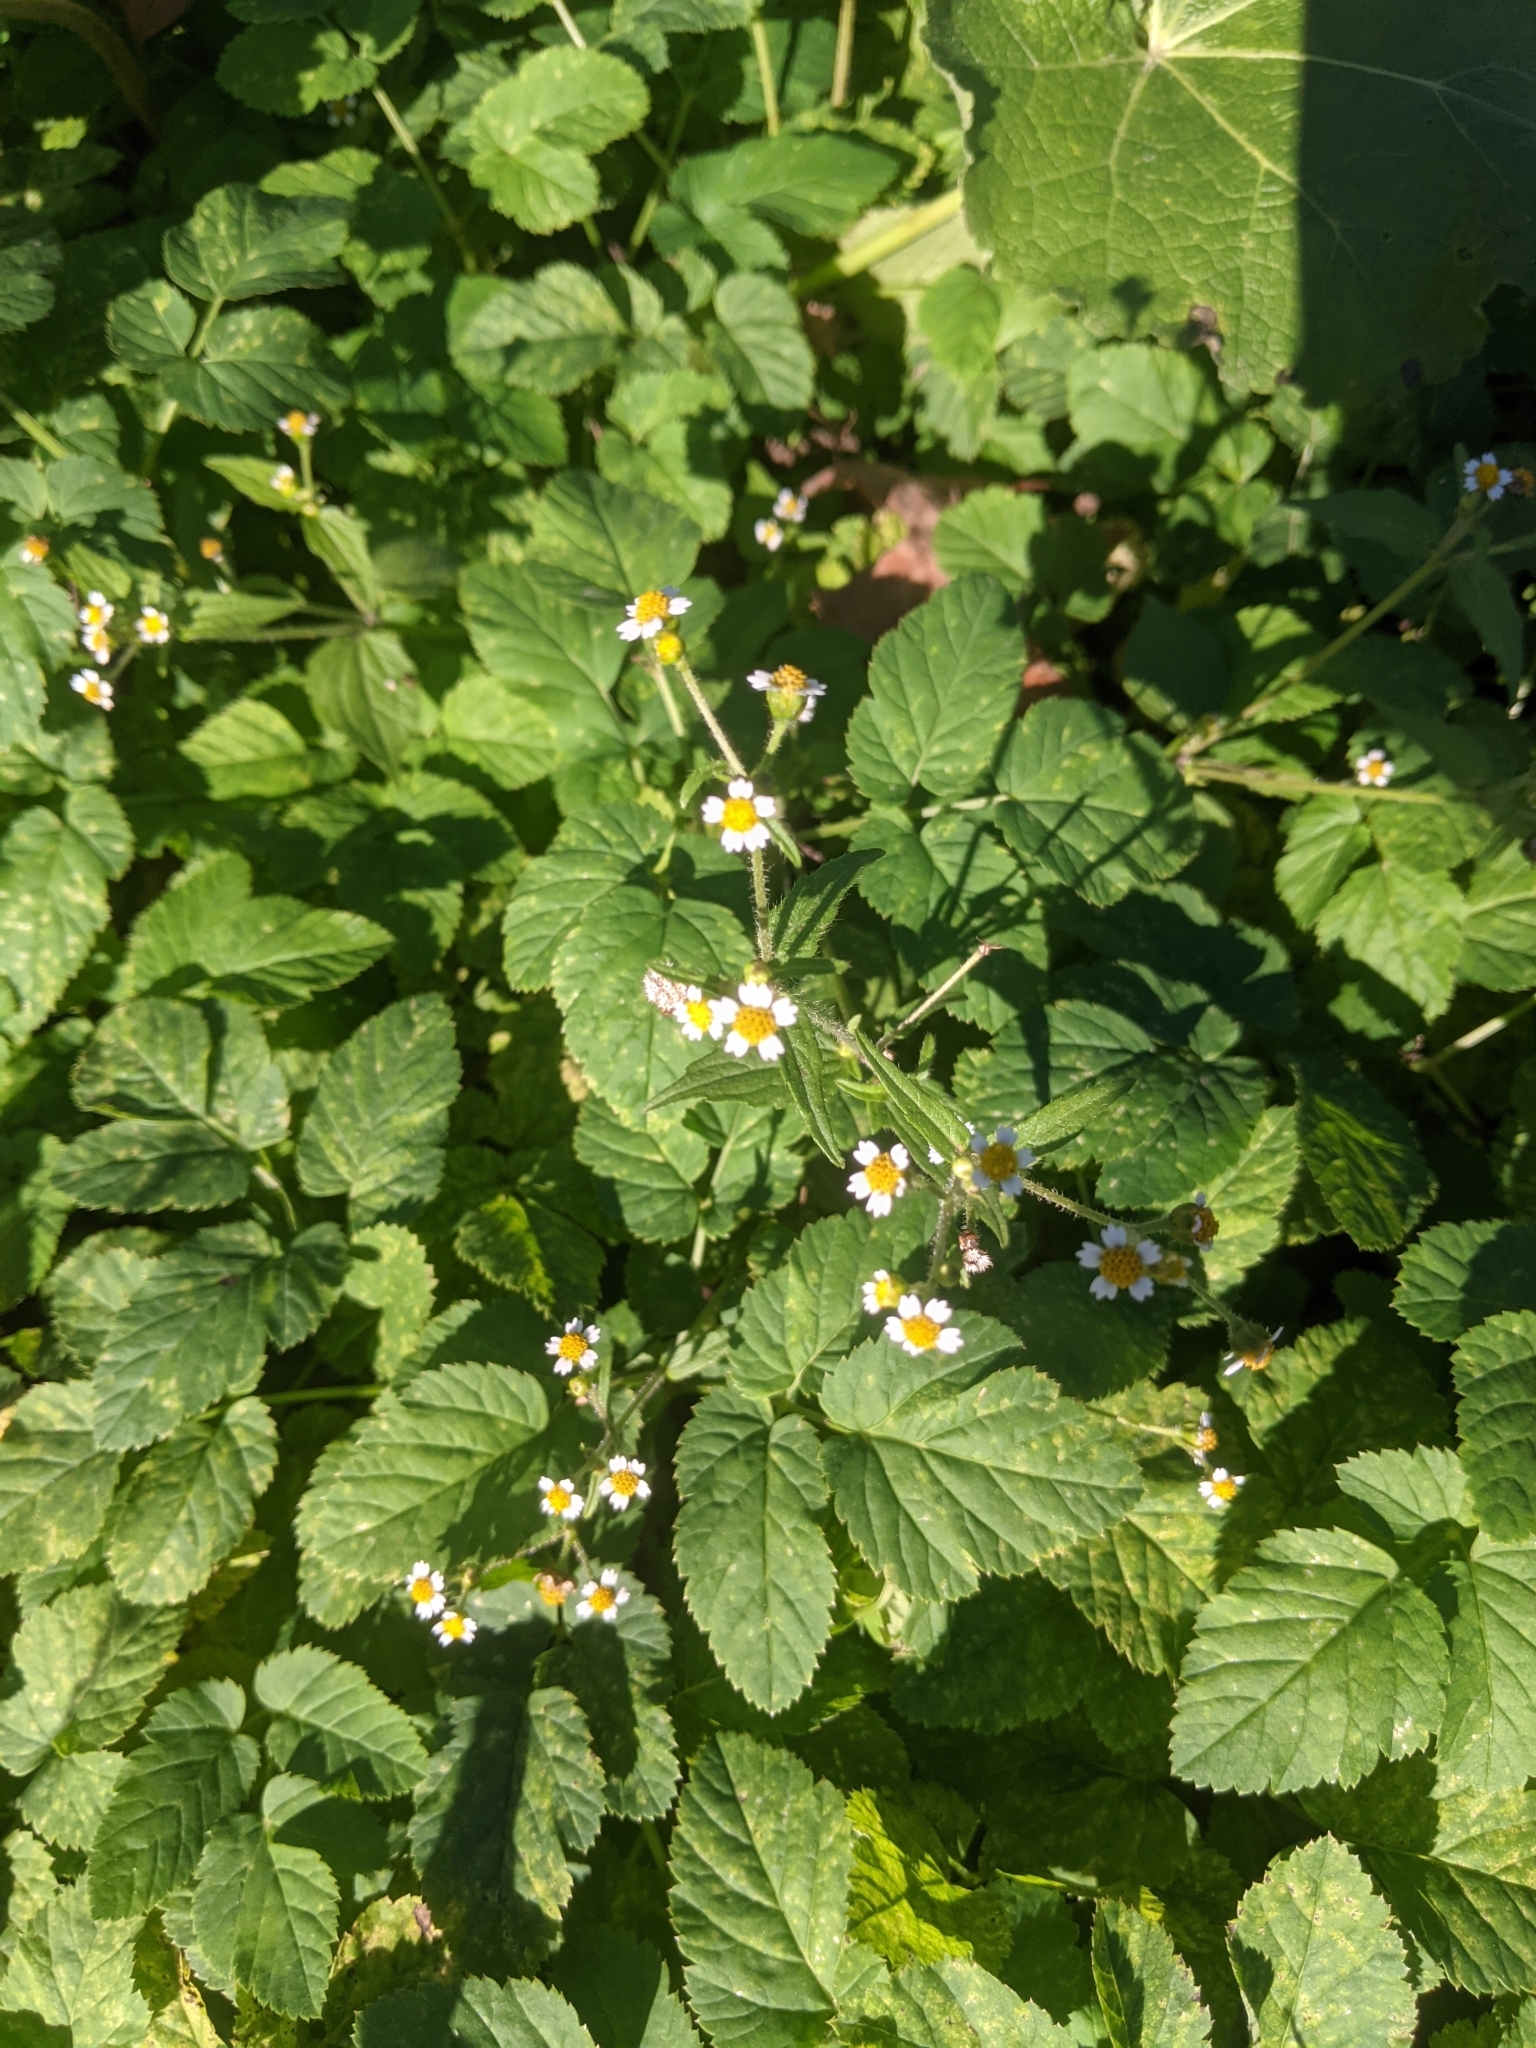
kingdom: Plantae
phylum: Tracheophyta
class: Magnoliopsida
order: Asterales
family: Asteraceae
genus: Galinsoga
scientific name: Galinsoga quadriradiata
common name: Shaggy soldier
